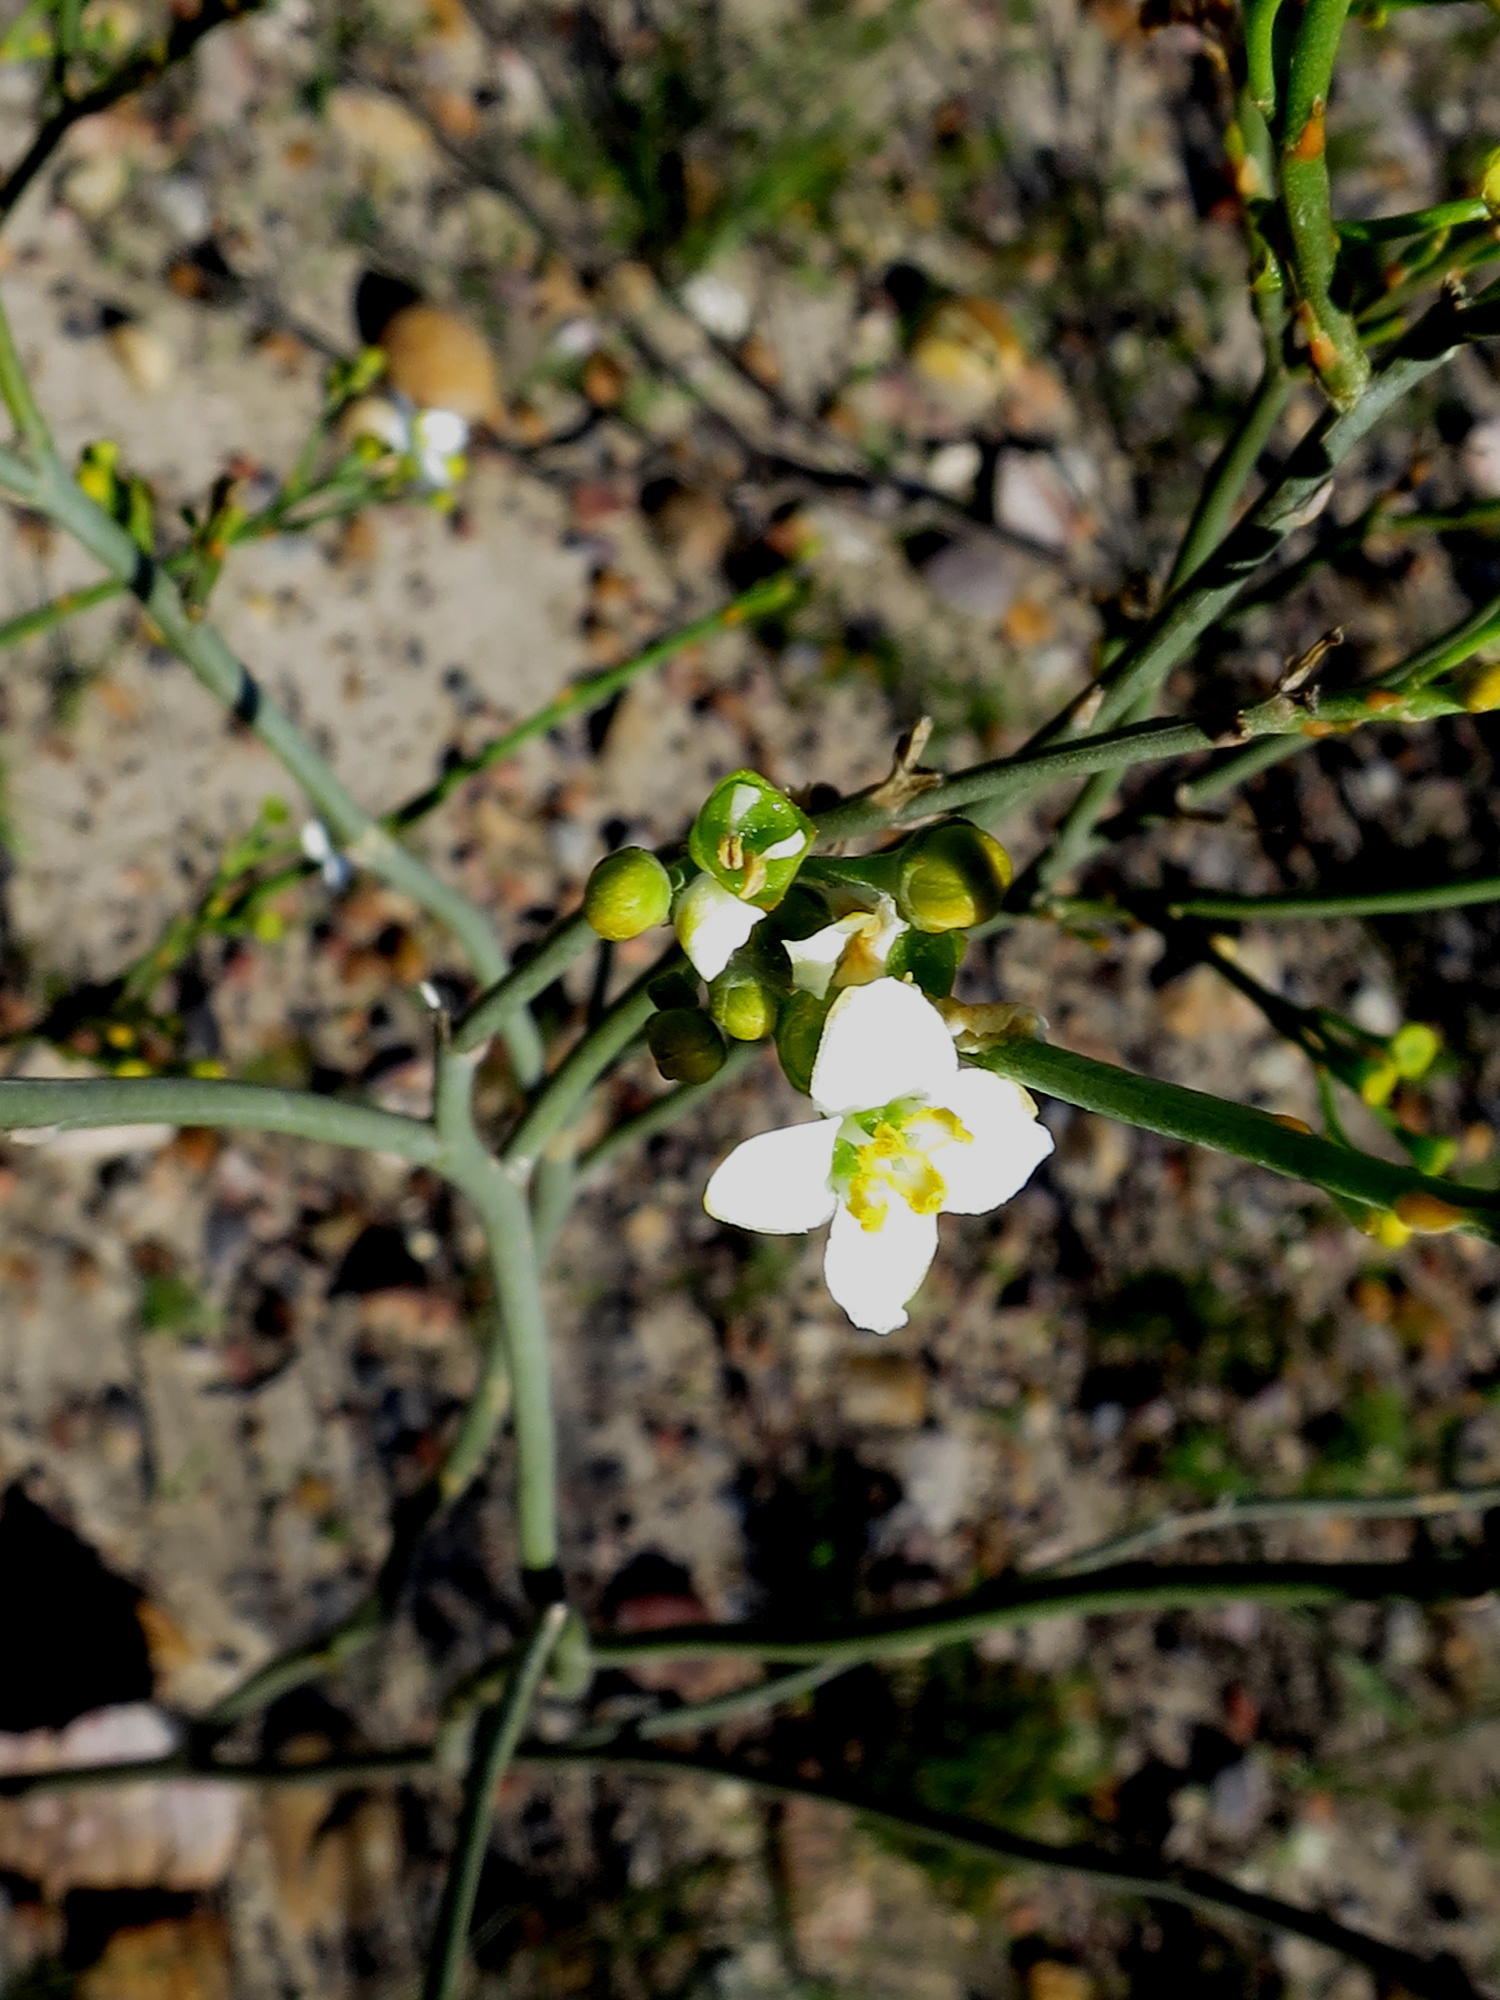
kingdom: Plantae
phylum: Tracheophyta
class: Magnoliopsida
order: Solanales
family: Montiniaceae
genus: Montinia
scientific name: Montinia caryophyllacea
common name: Wild clove-bush
